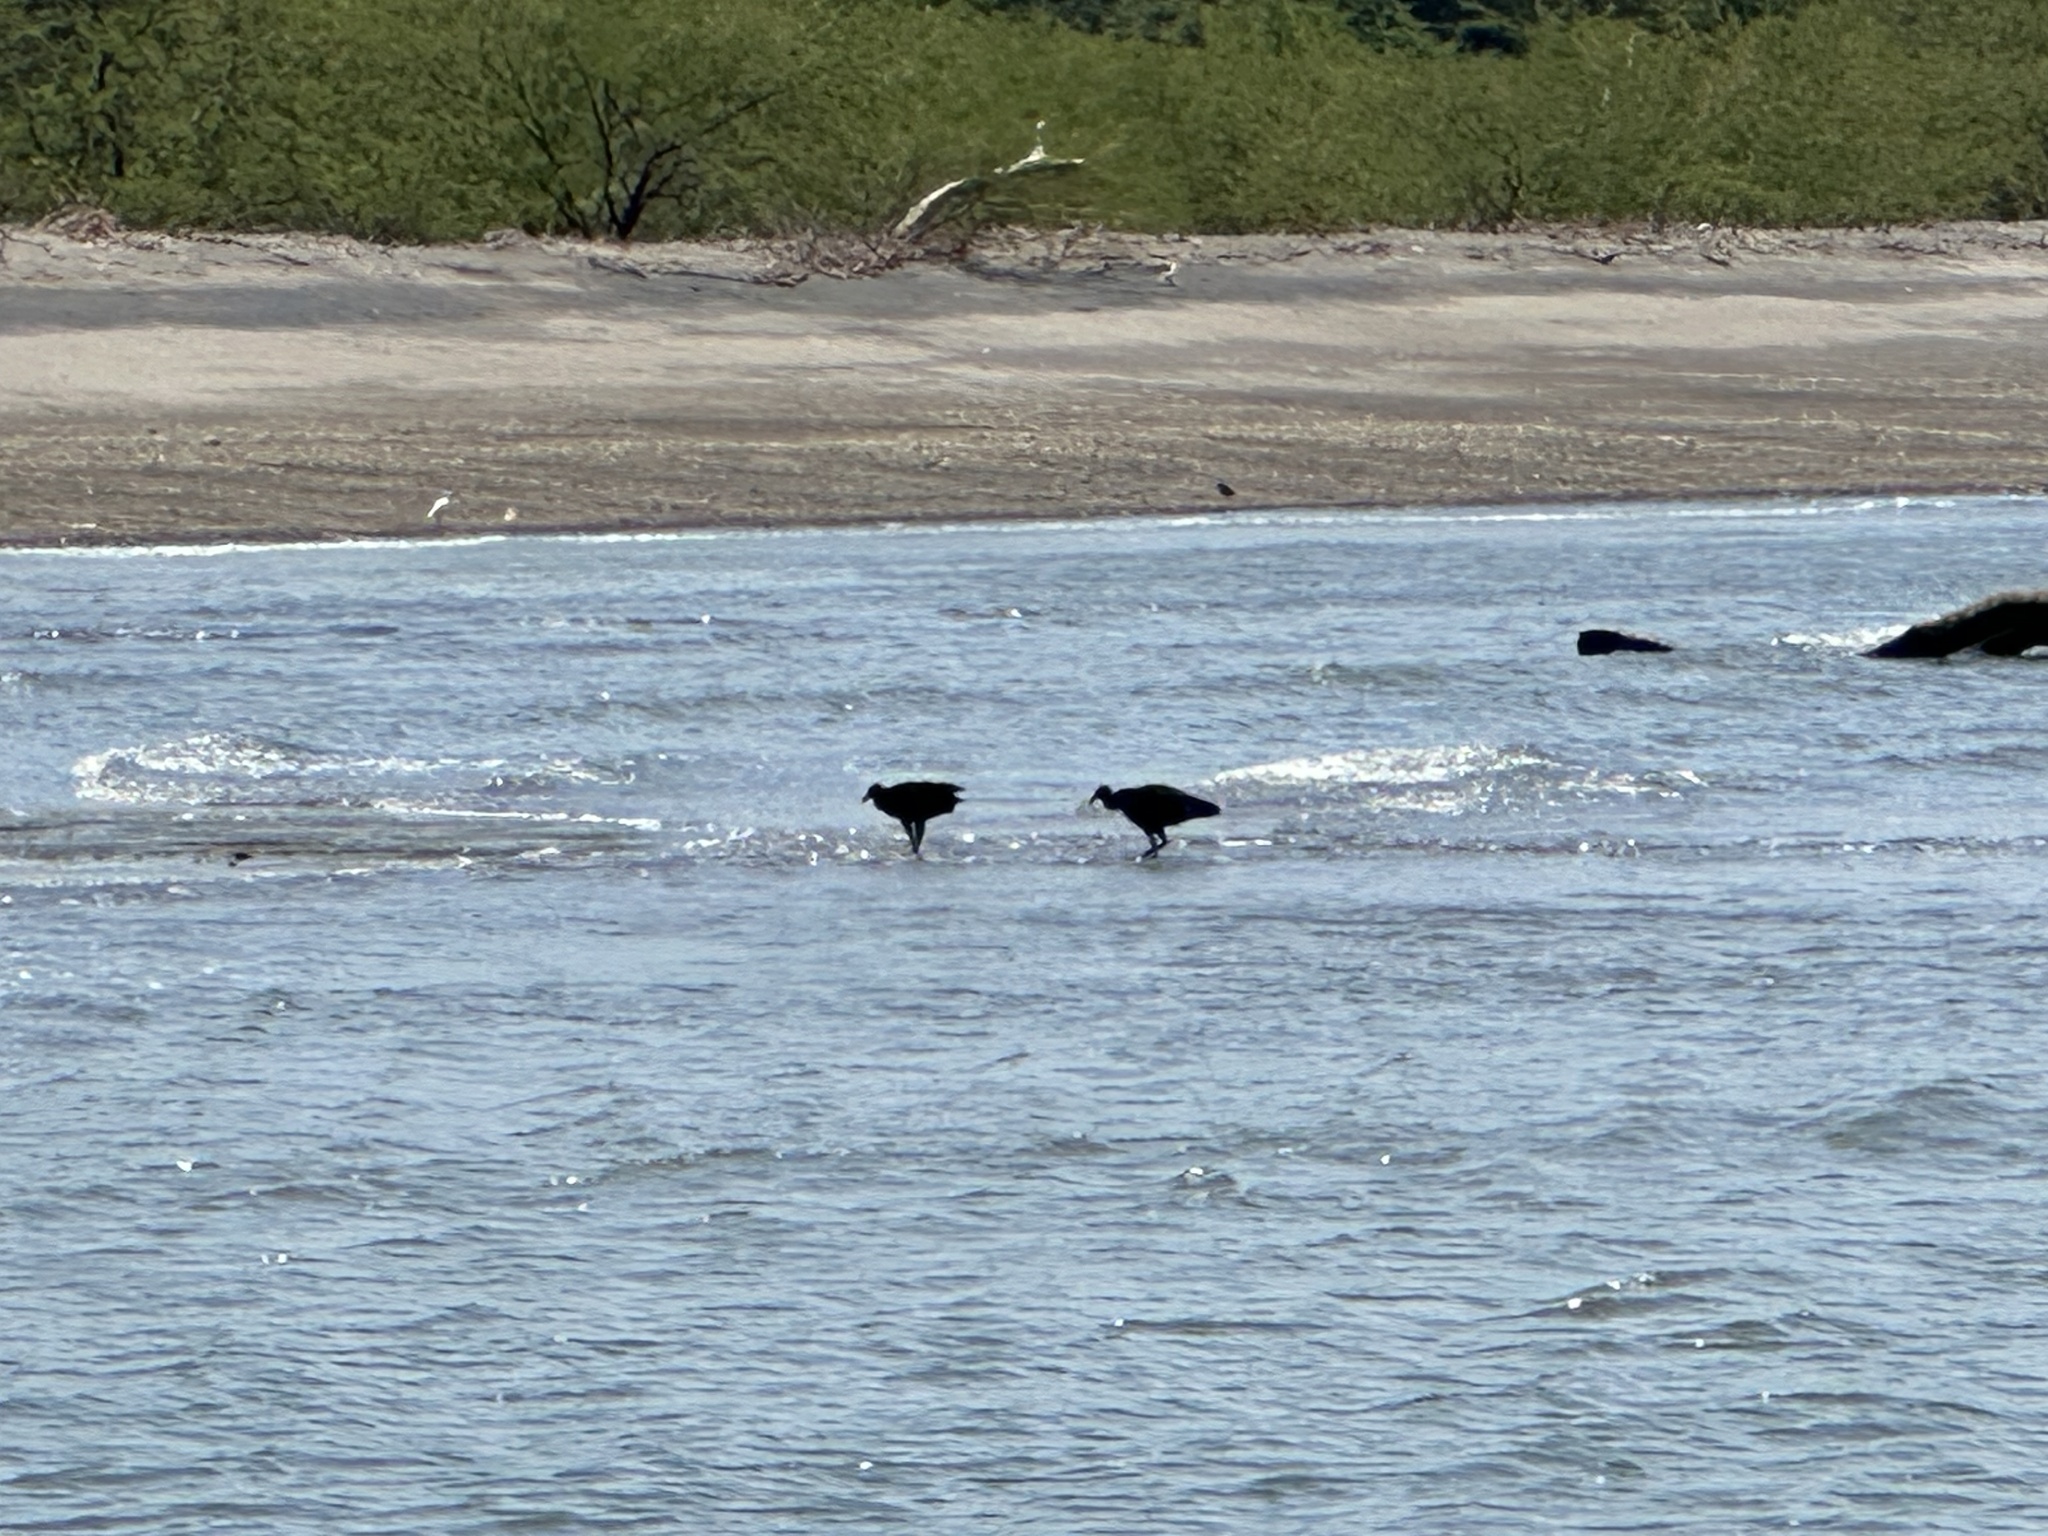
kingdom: Animalia
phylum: Chordata
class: Aves
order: Accipitriformes
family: Cathartidae
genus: Coragyps
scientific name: Coragyps atratus
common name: Black vulture
